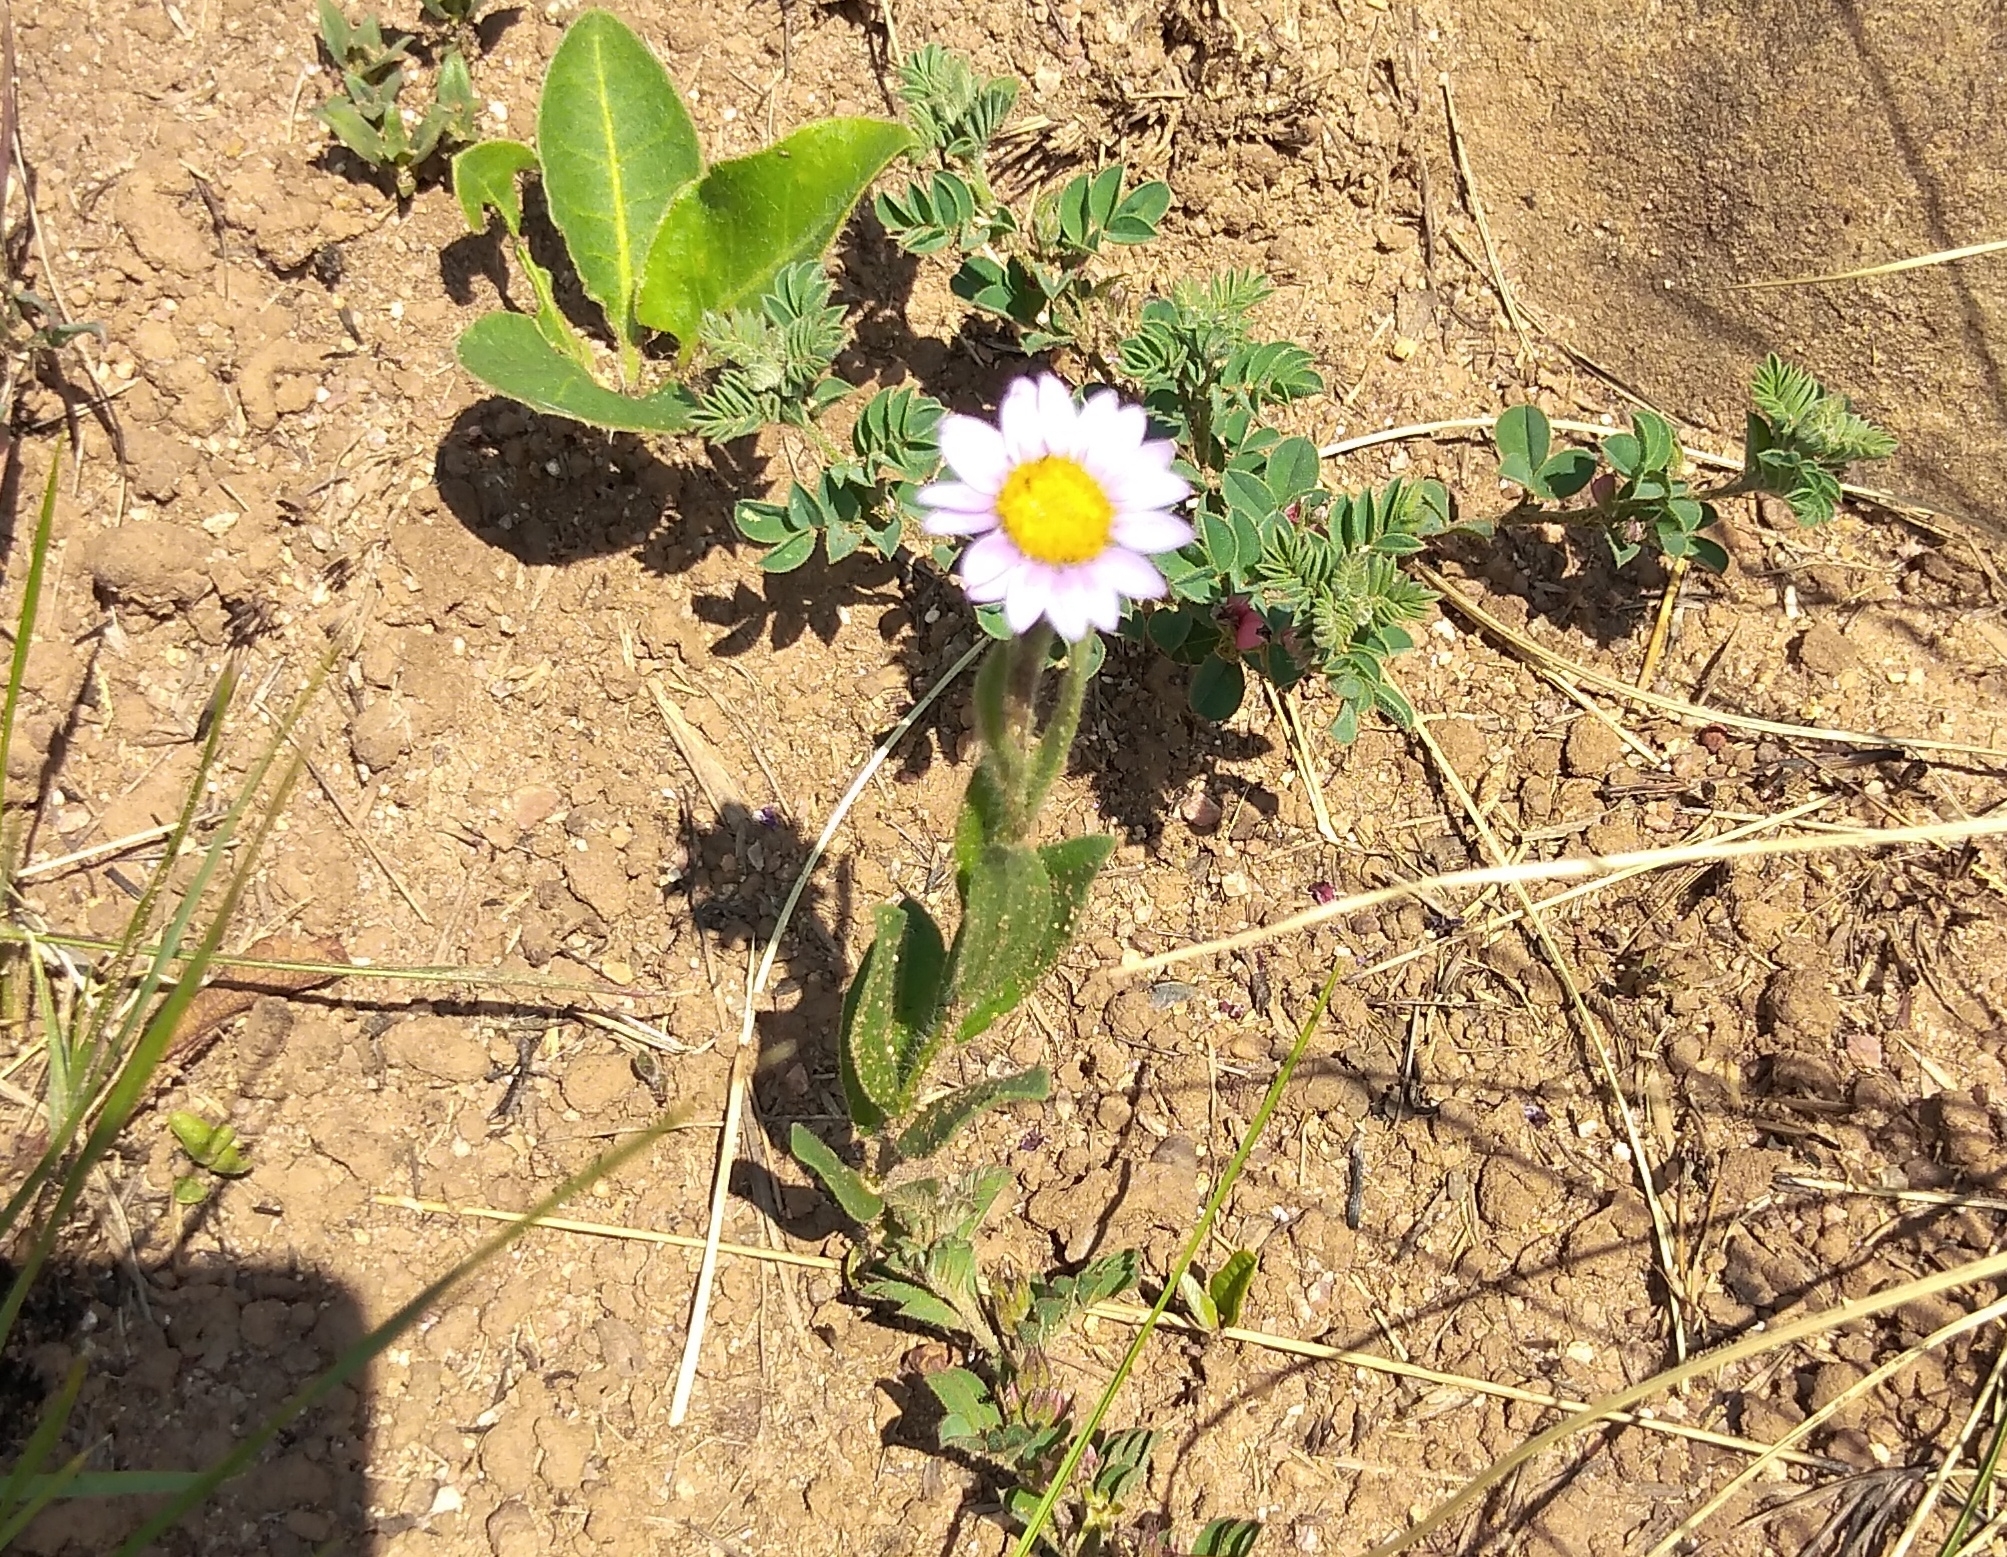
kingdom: Plantae
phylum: Tracheophyta
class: Magnoliopsida
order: Asterales
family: Asteraceae
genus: Afroaster
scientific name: Afroaster hispidus
